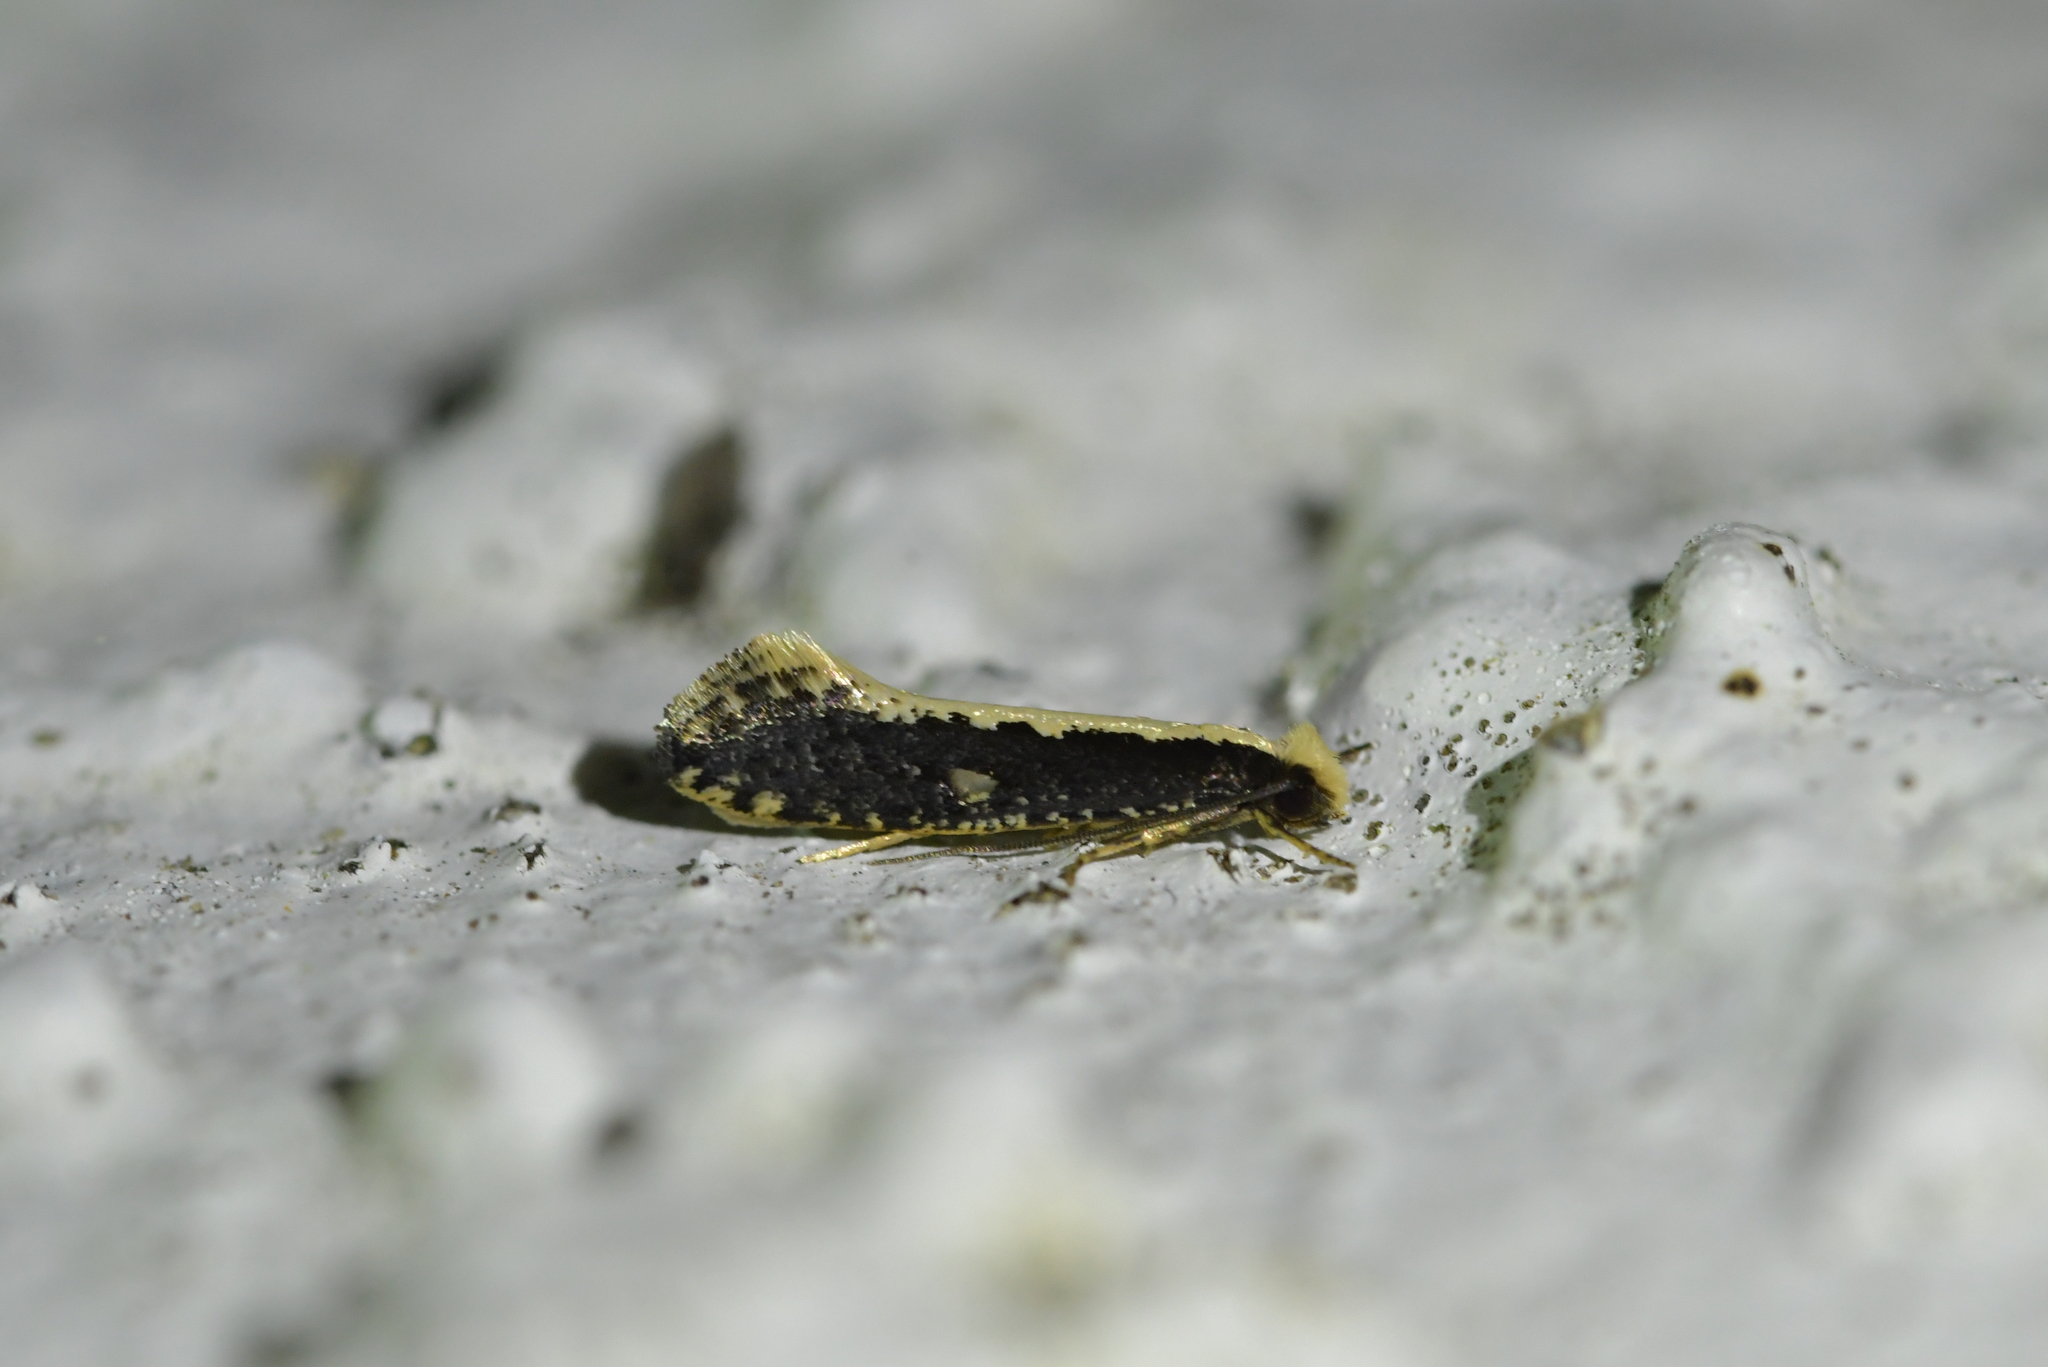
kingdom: Animalia
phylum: Arthropoda
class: Insecta
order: Lepidoptera
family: Tineidae
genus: Monopis
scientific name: Monopis ethelella
